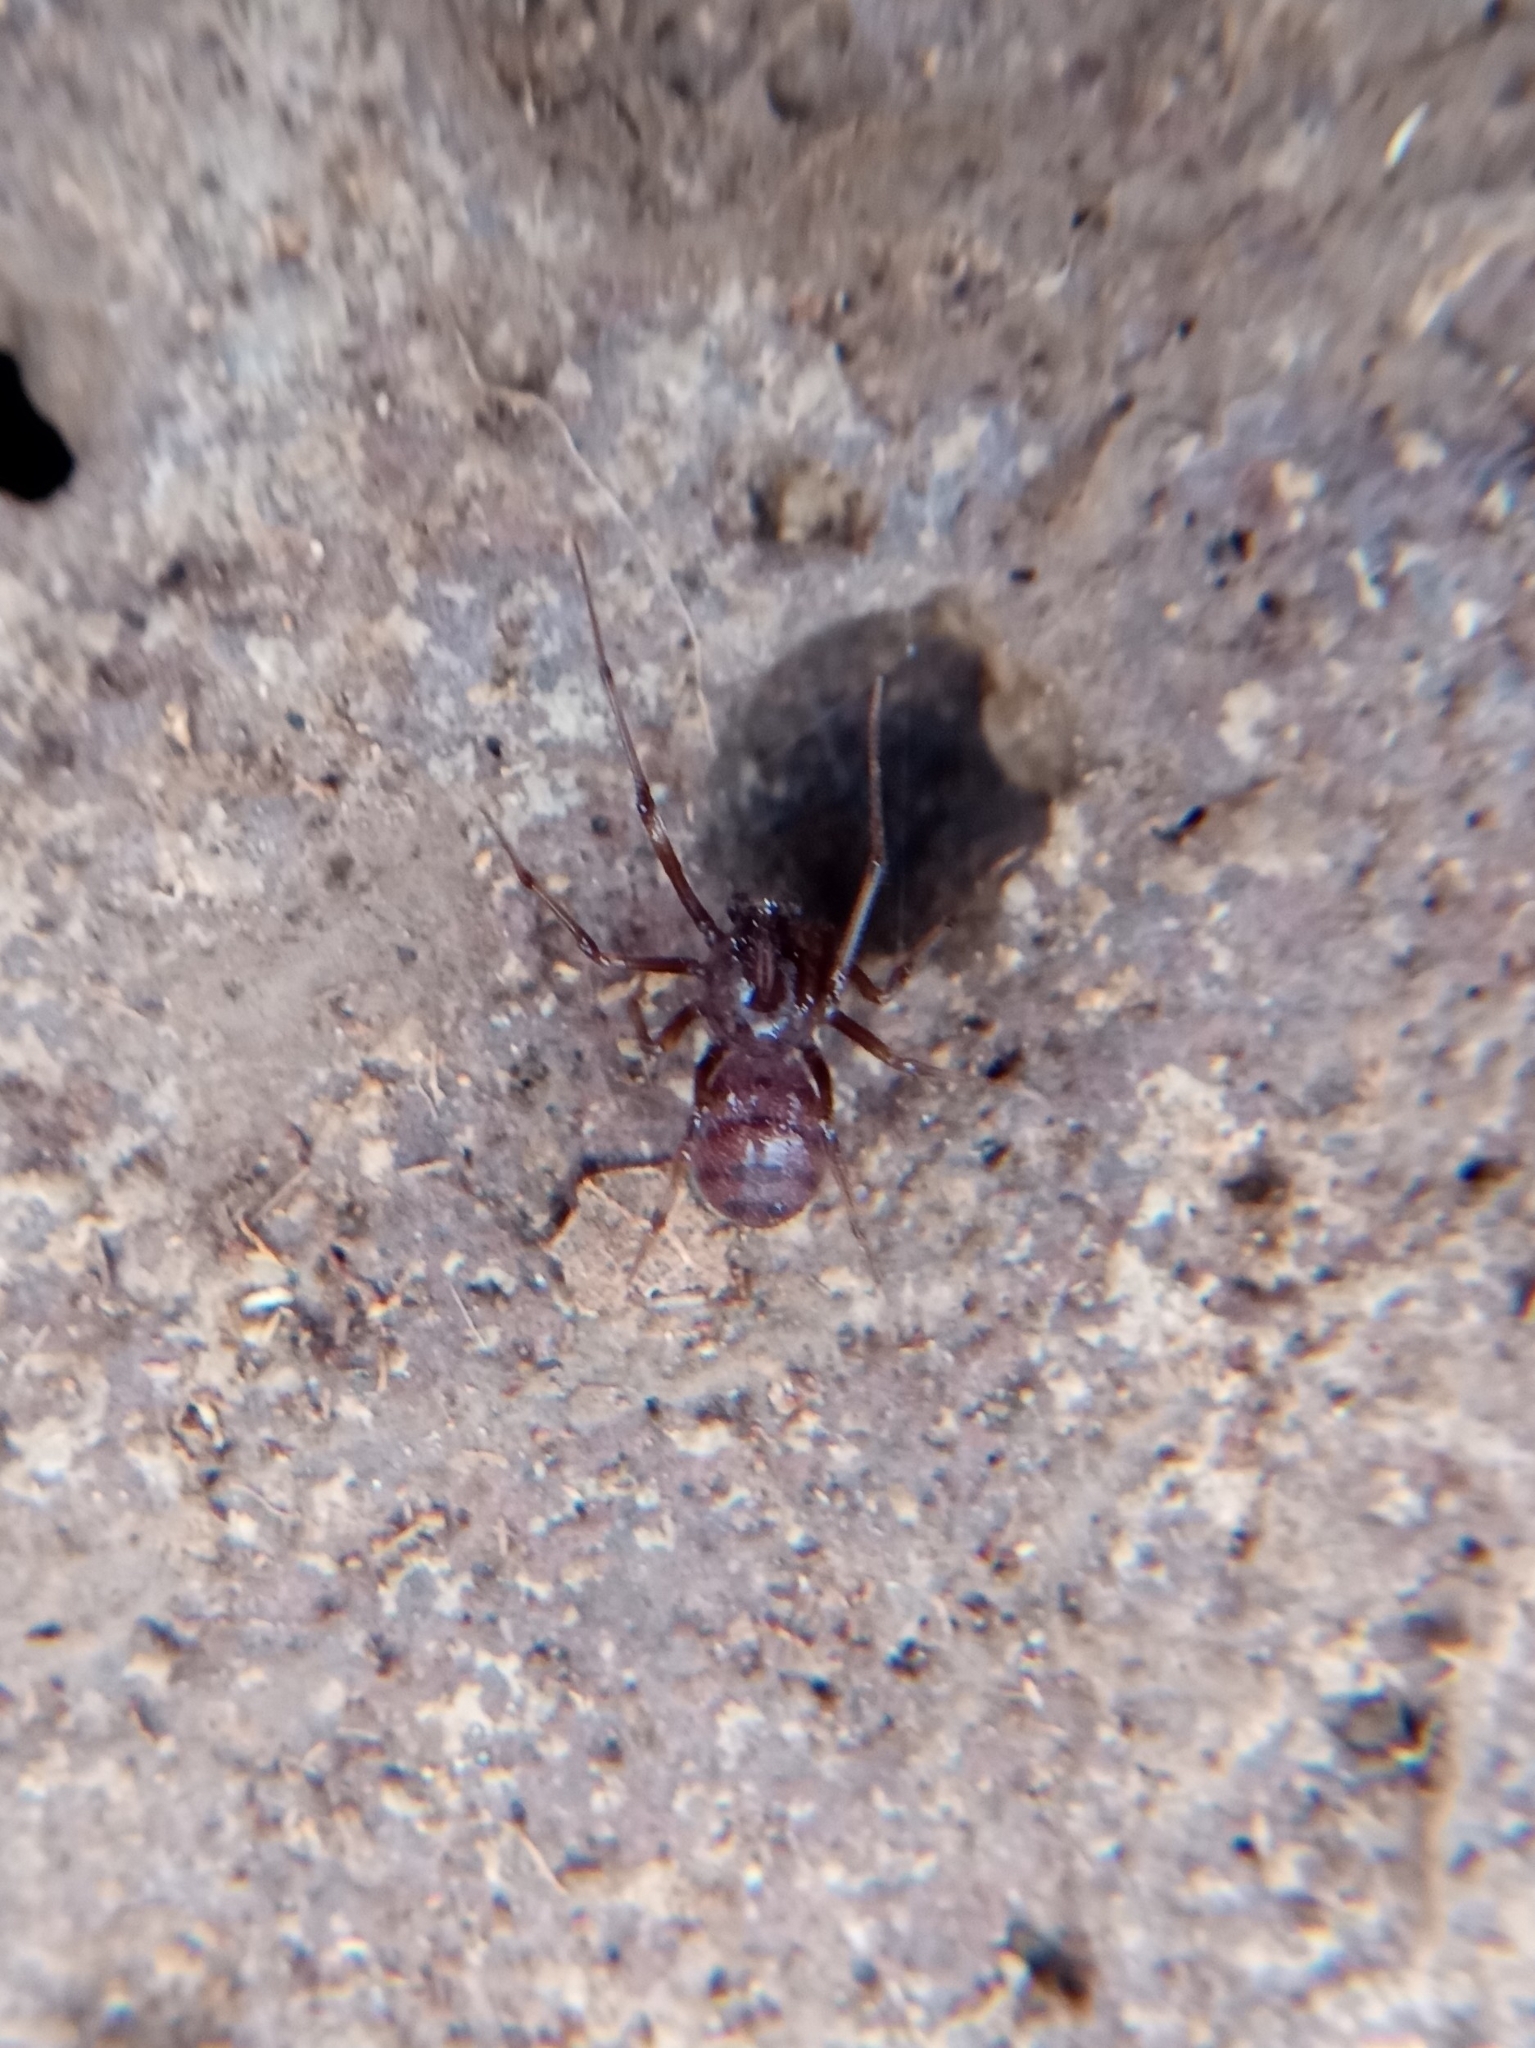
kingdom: Animalia
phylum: Arthropoda
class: Arachnida
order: Araneae
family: Scytodidae
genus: Dictis
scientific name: Dictis striatipes
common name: Spider
